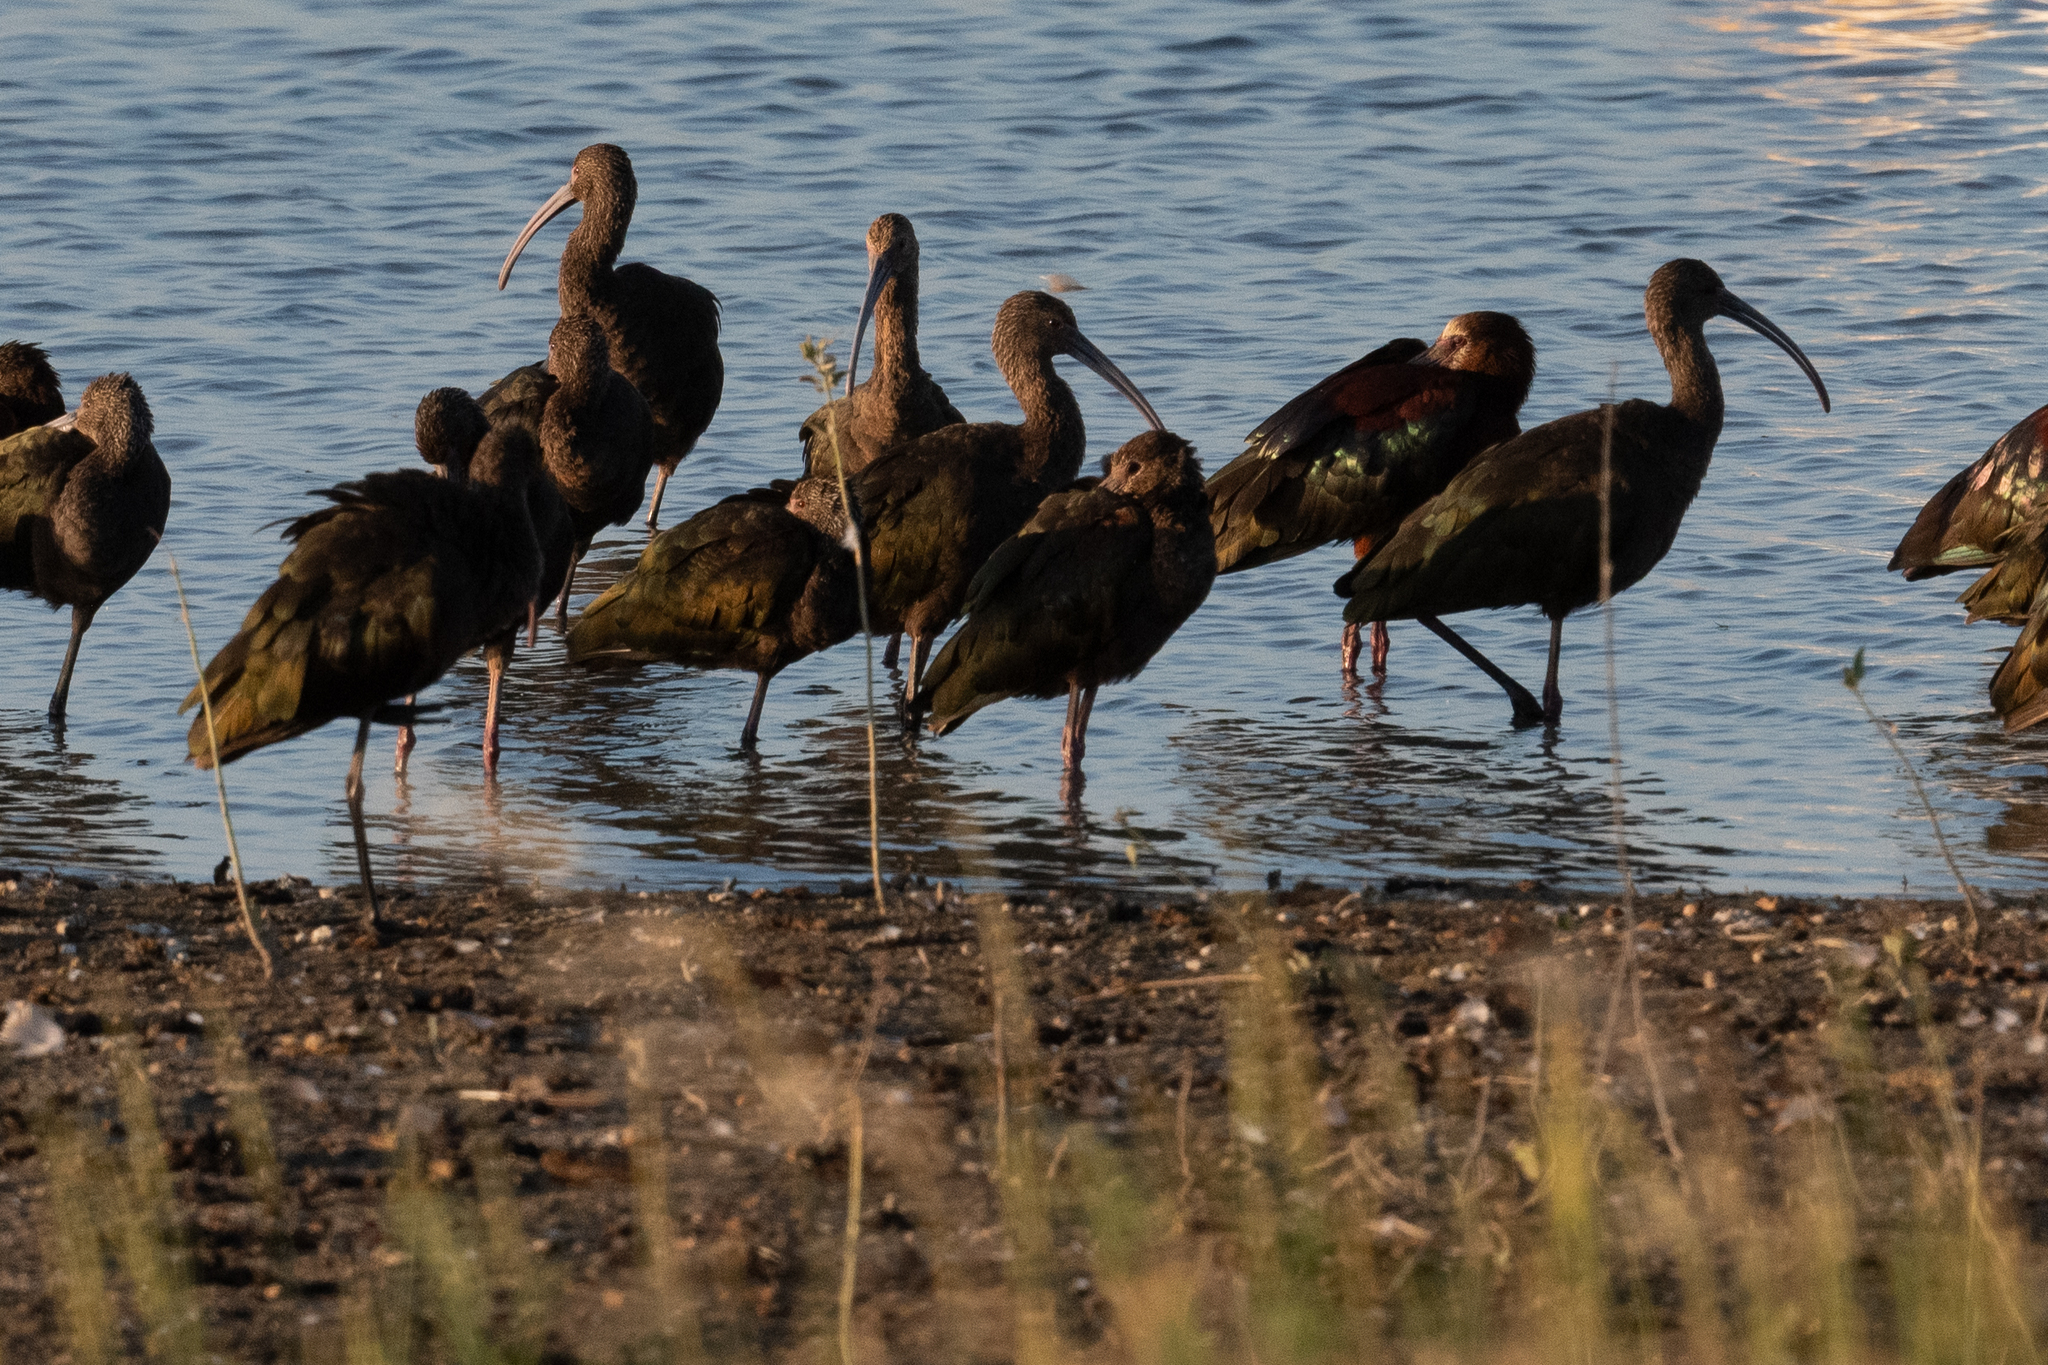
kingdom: Animalia
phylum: Chordata
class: Aves
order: Pelecaniformes
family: Threskiornithidae
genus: Plegadis
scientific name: Plegadis chihi
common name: White-faced ibis
